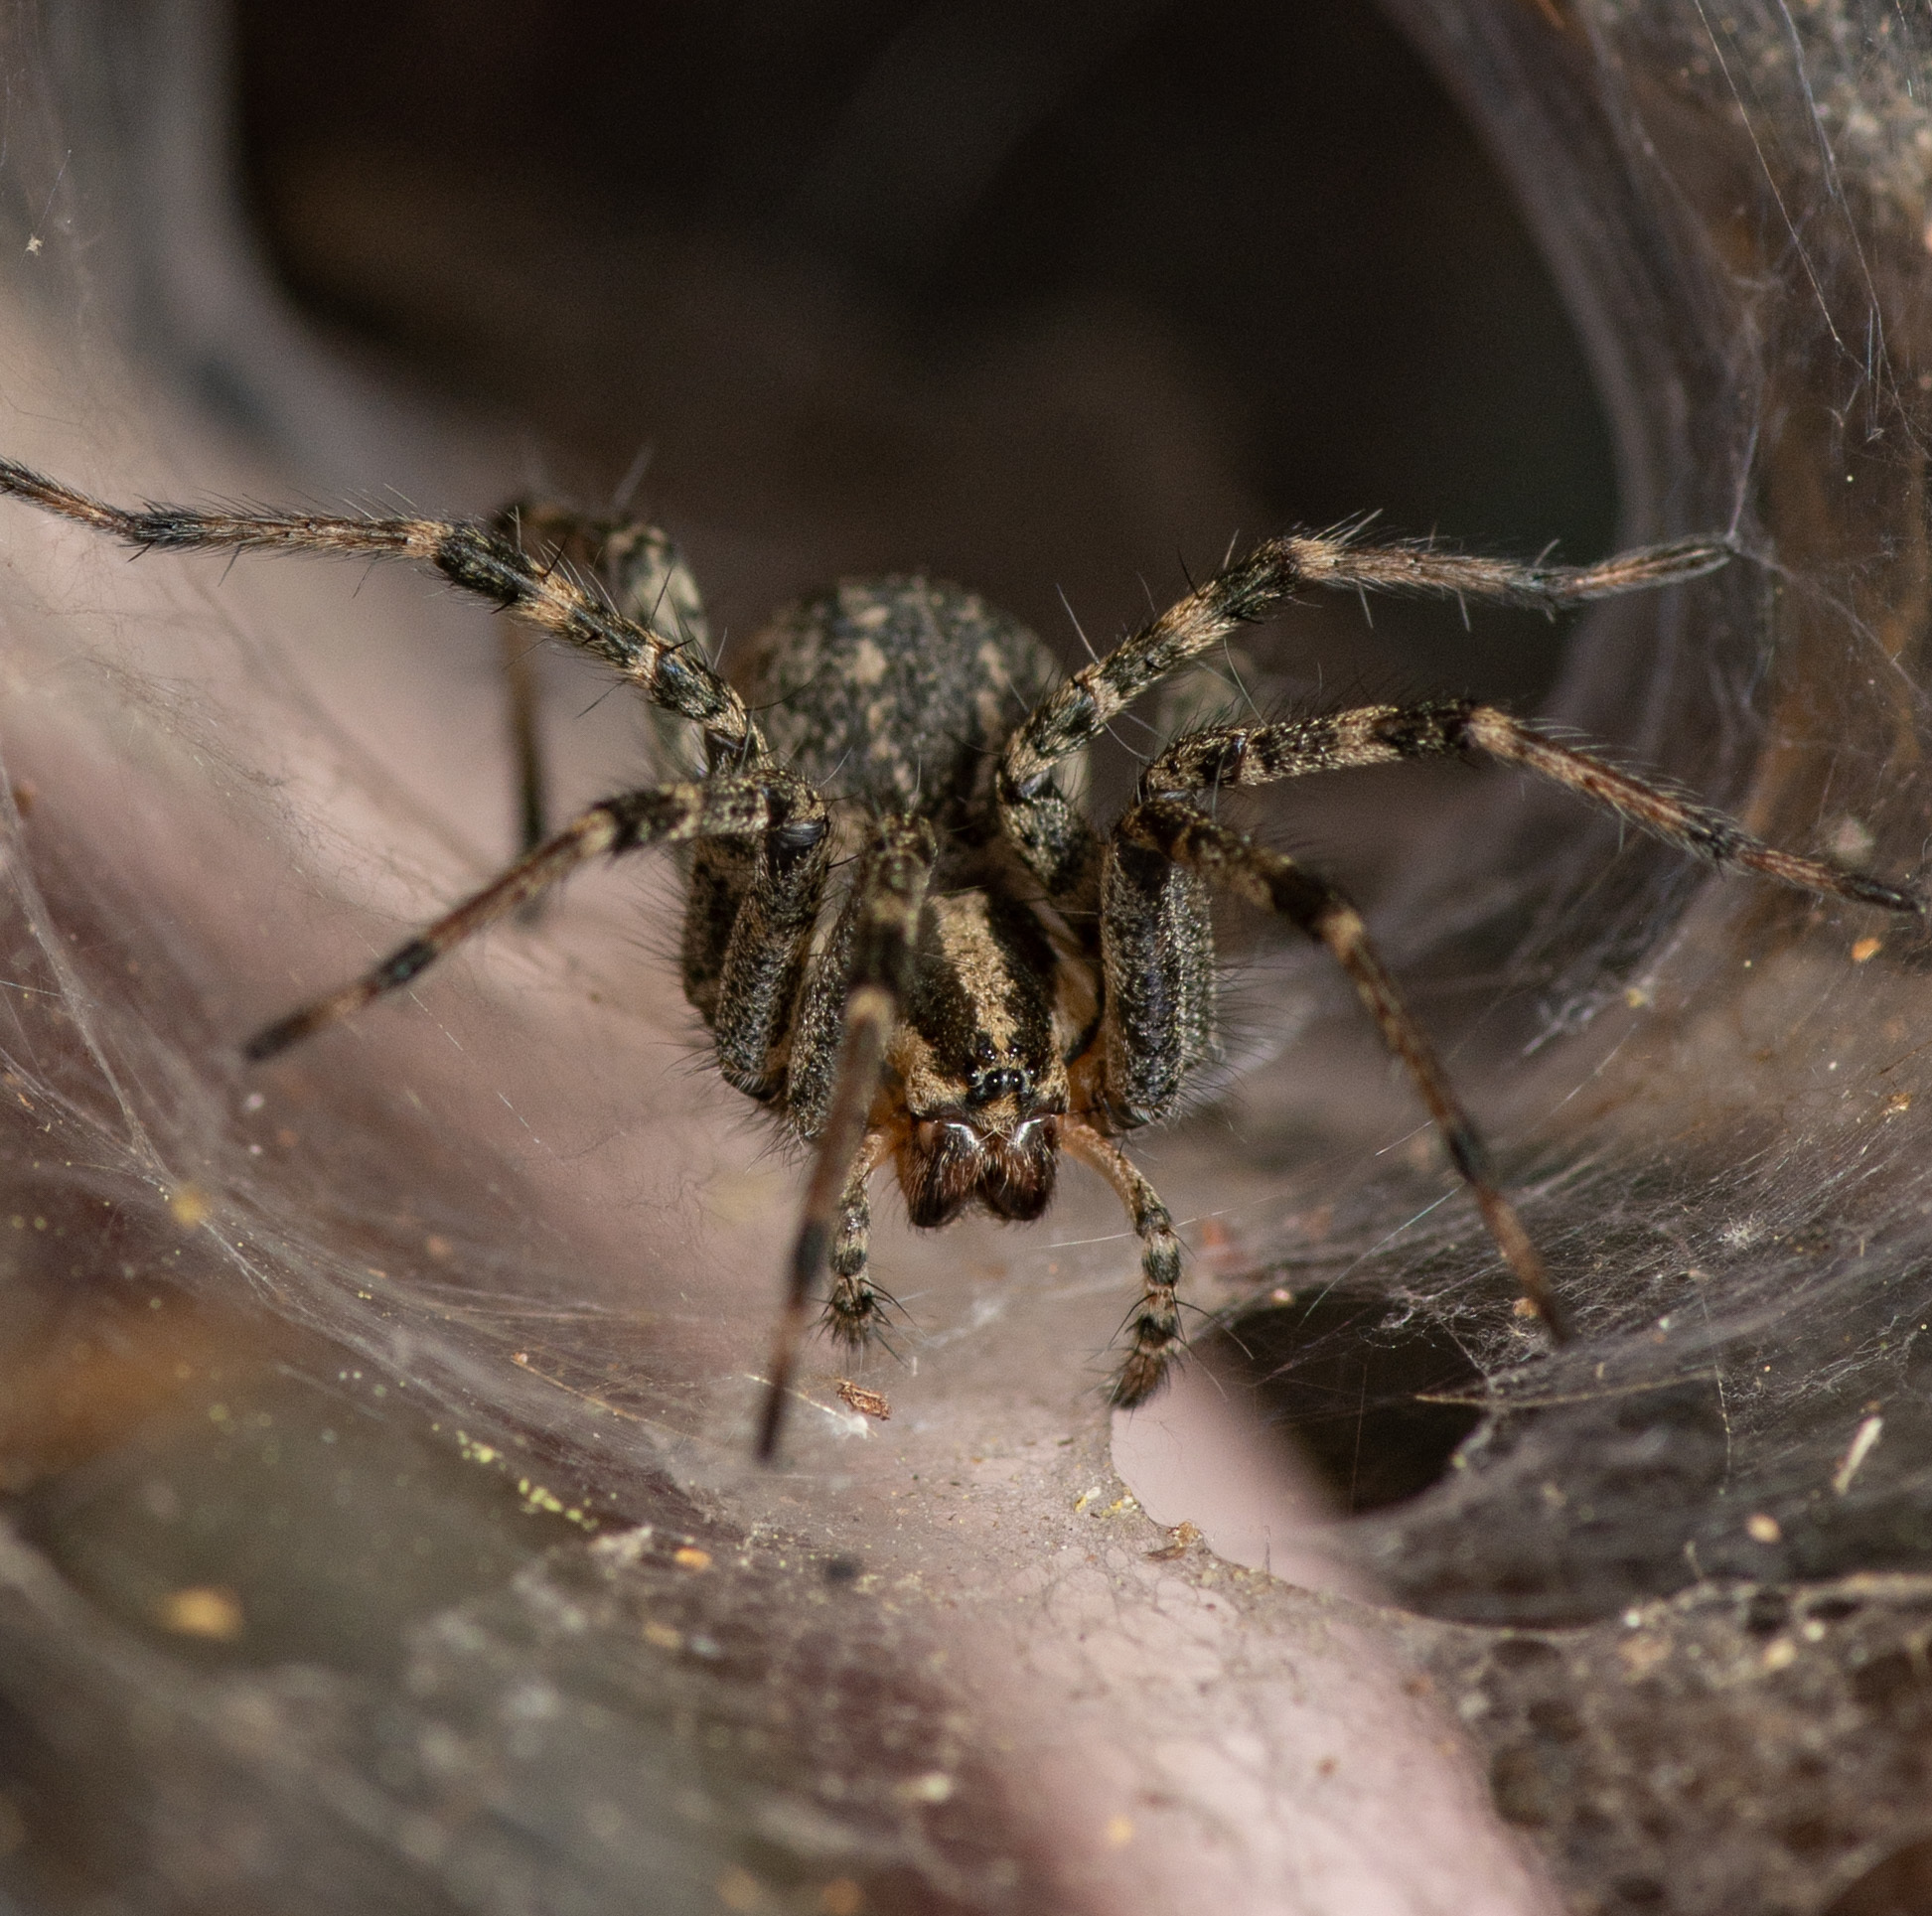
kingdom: Animalia
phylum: Arthropoda
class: Arachnida
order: Araneae
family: Agelenidae
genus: Agelenopsis
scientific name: Agelenopsis
